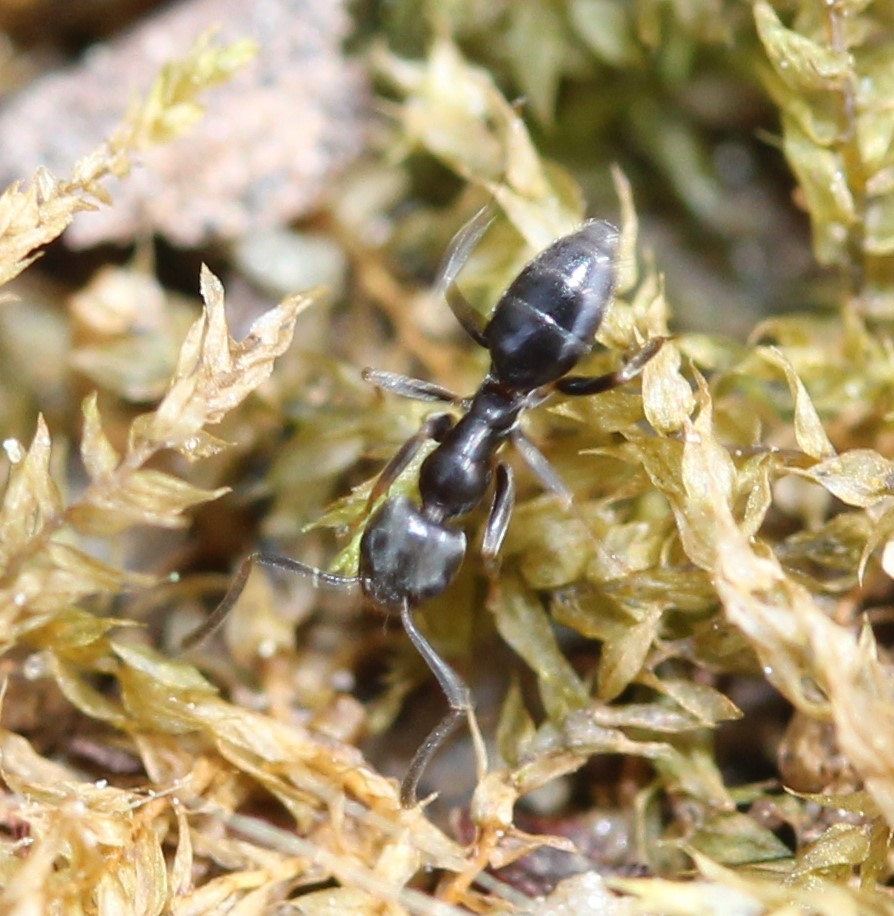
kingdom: Animalia
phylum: Arthropoda
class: Insecta
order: Hymenoptera
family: Formicidae
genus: Tapinoma
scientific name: Tapinoma sessile
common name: Odorous house ant
